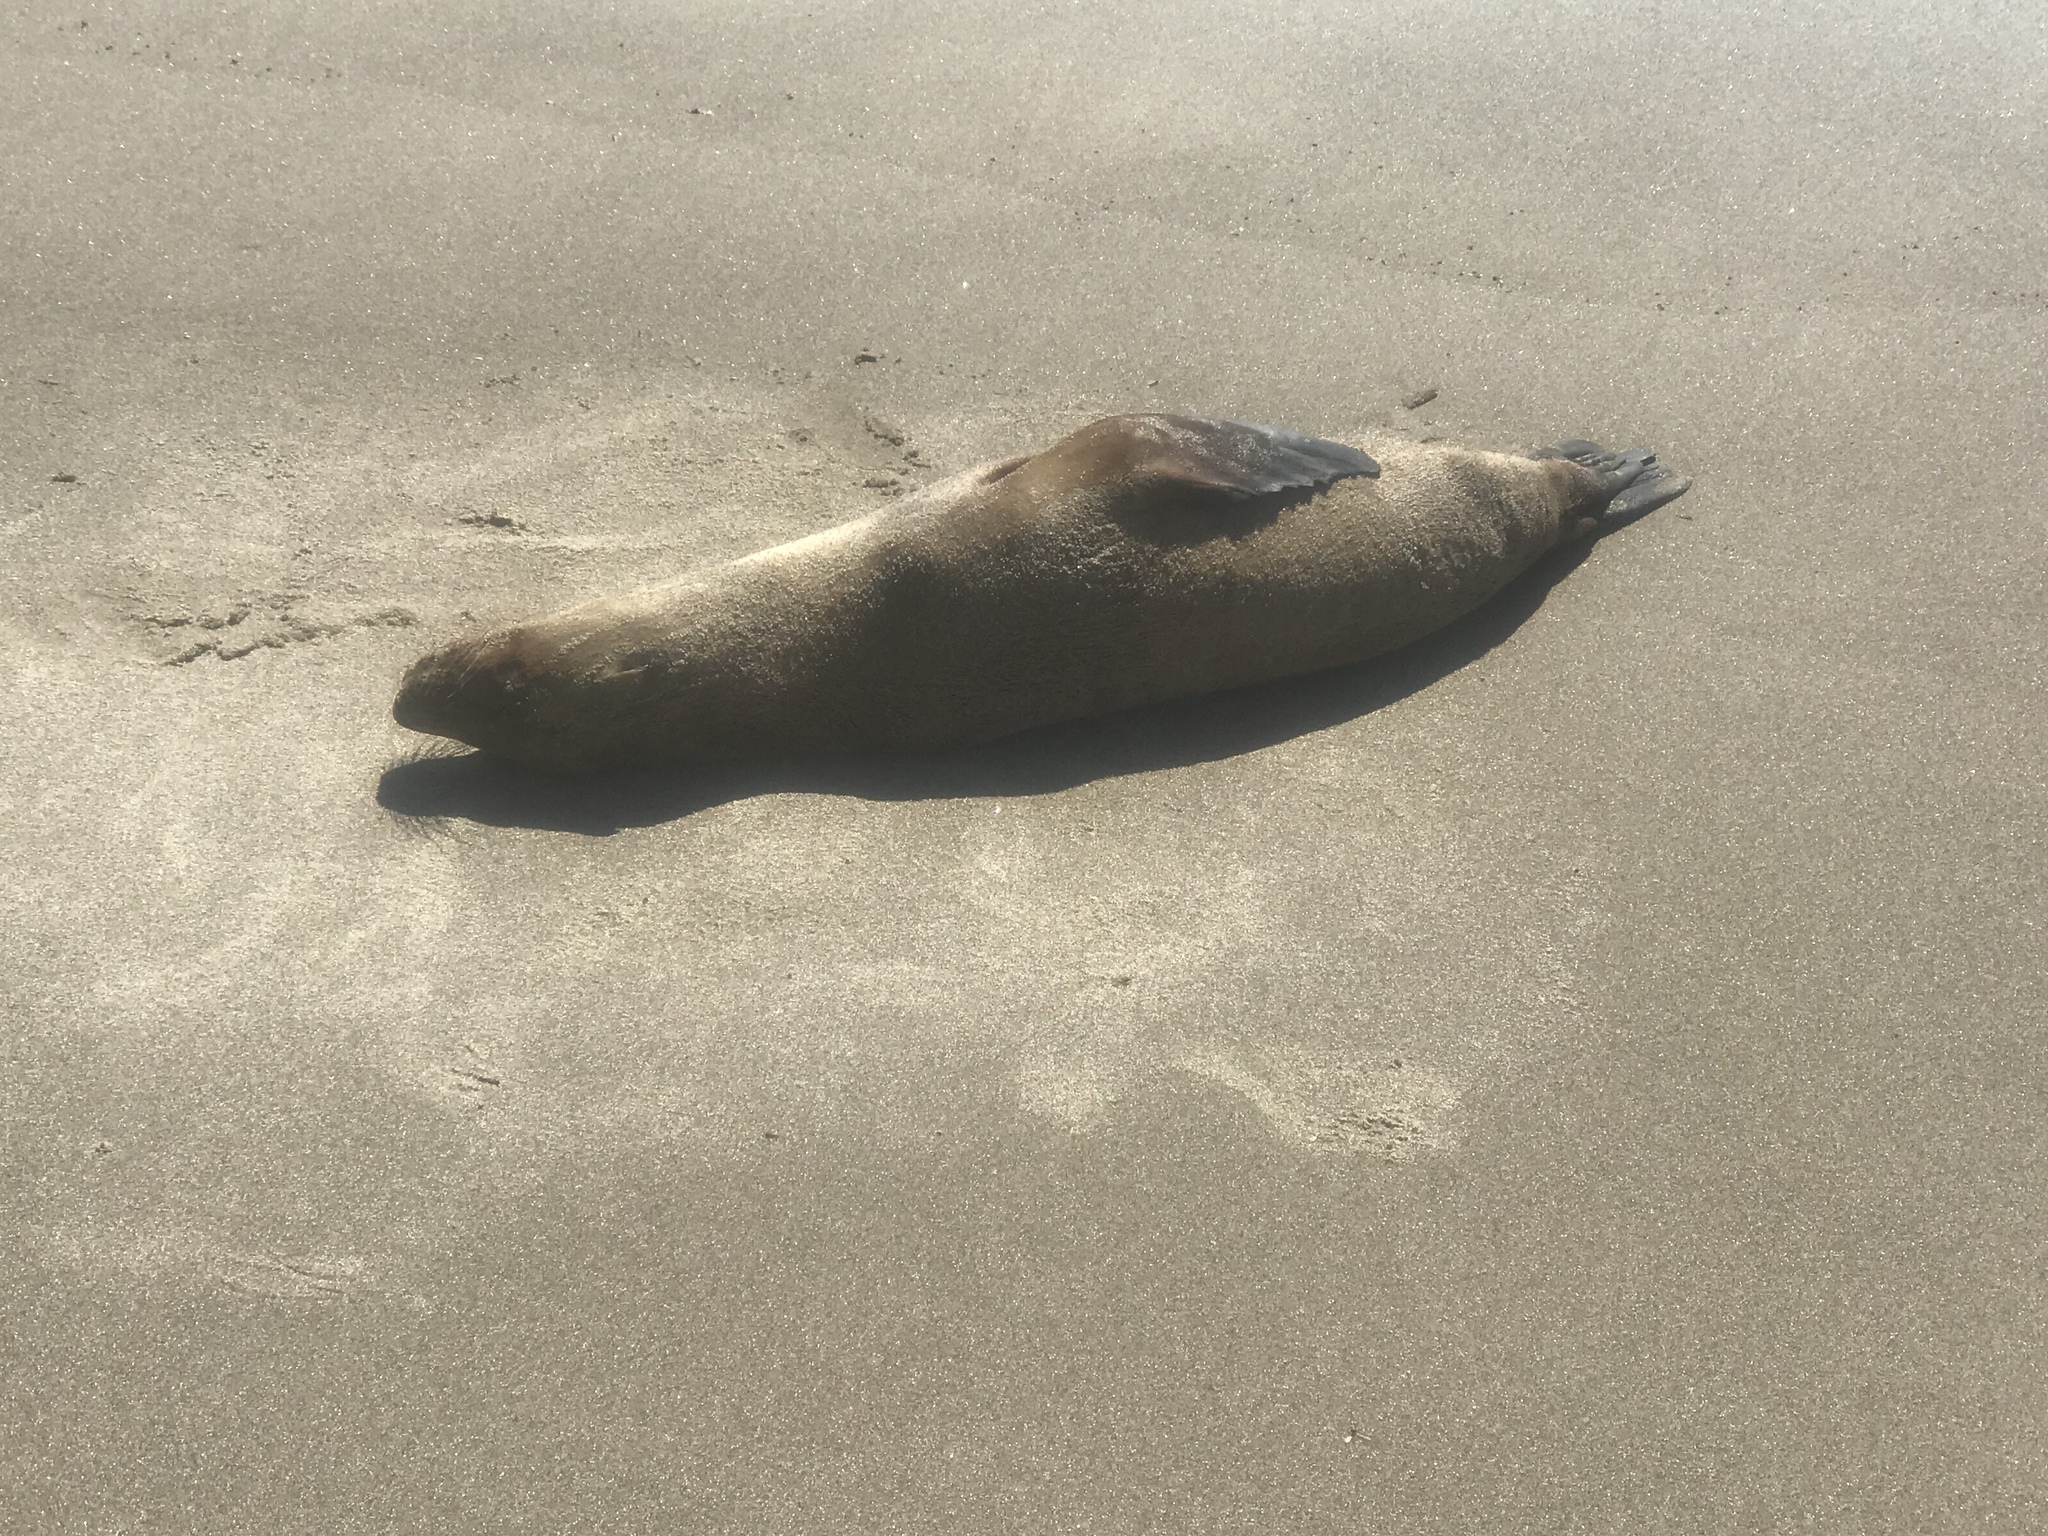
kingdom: Animalia
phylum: Chordata
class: Mammalia
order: Carnivora
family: Otariidae
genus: Zalophus
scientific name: Zalophus californianus
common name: California sea lion
